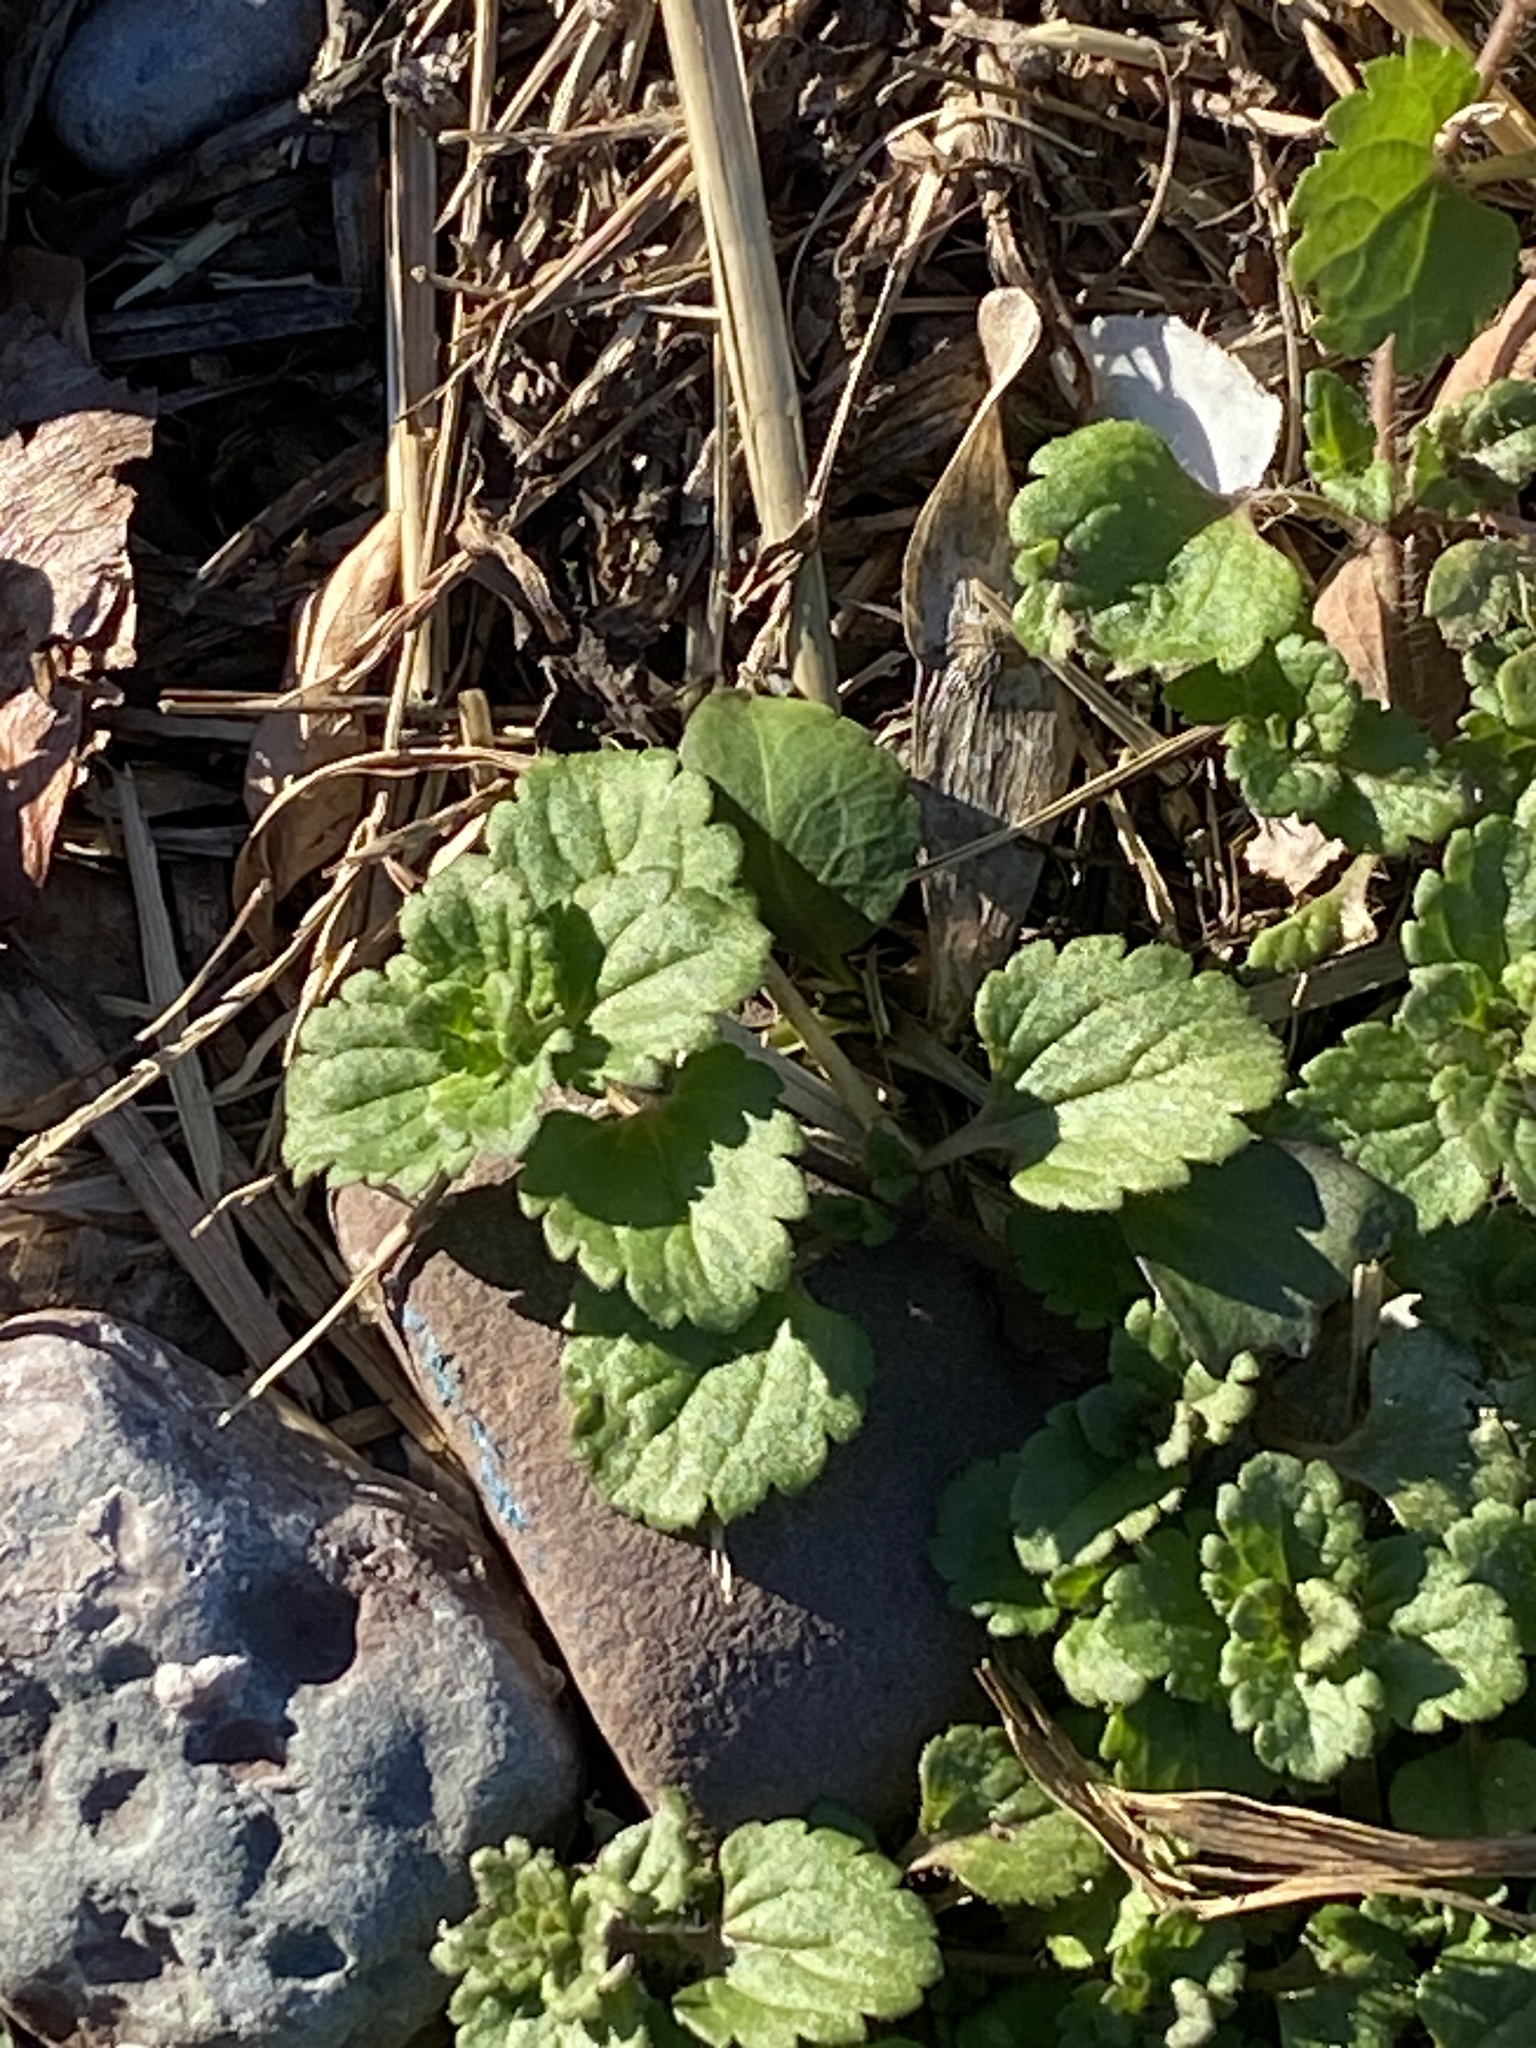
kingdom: Plantae
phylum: Tracheophyta
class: Magnoliopsida
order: Lamiales
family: Plantaginaceae
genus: Veronica
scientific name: Veronica persica
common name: Common field-speedwell
